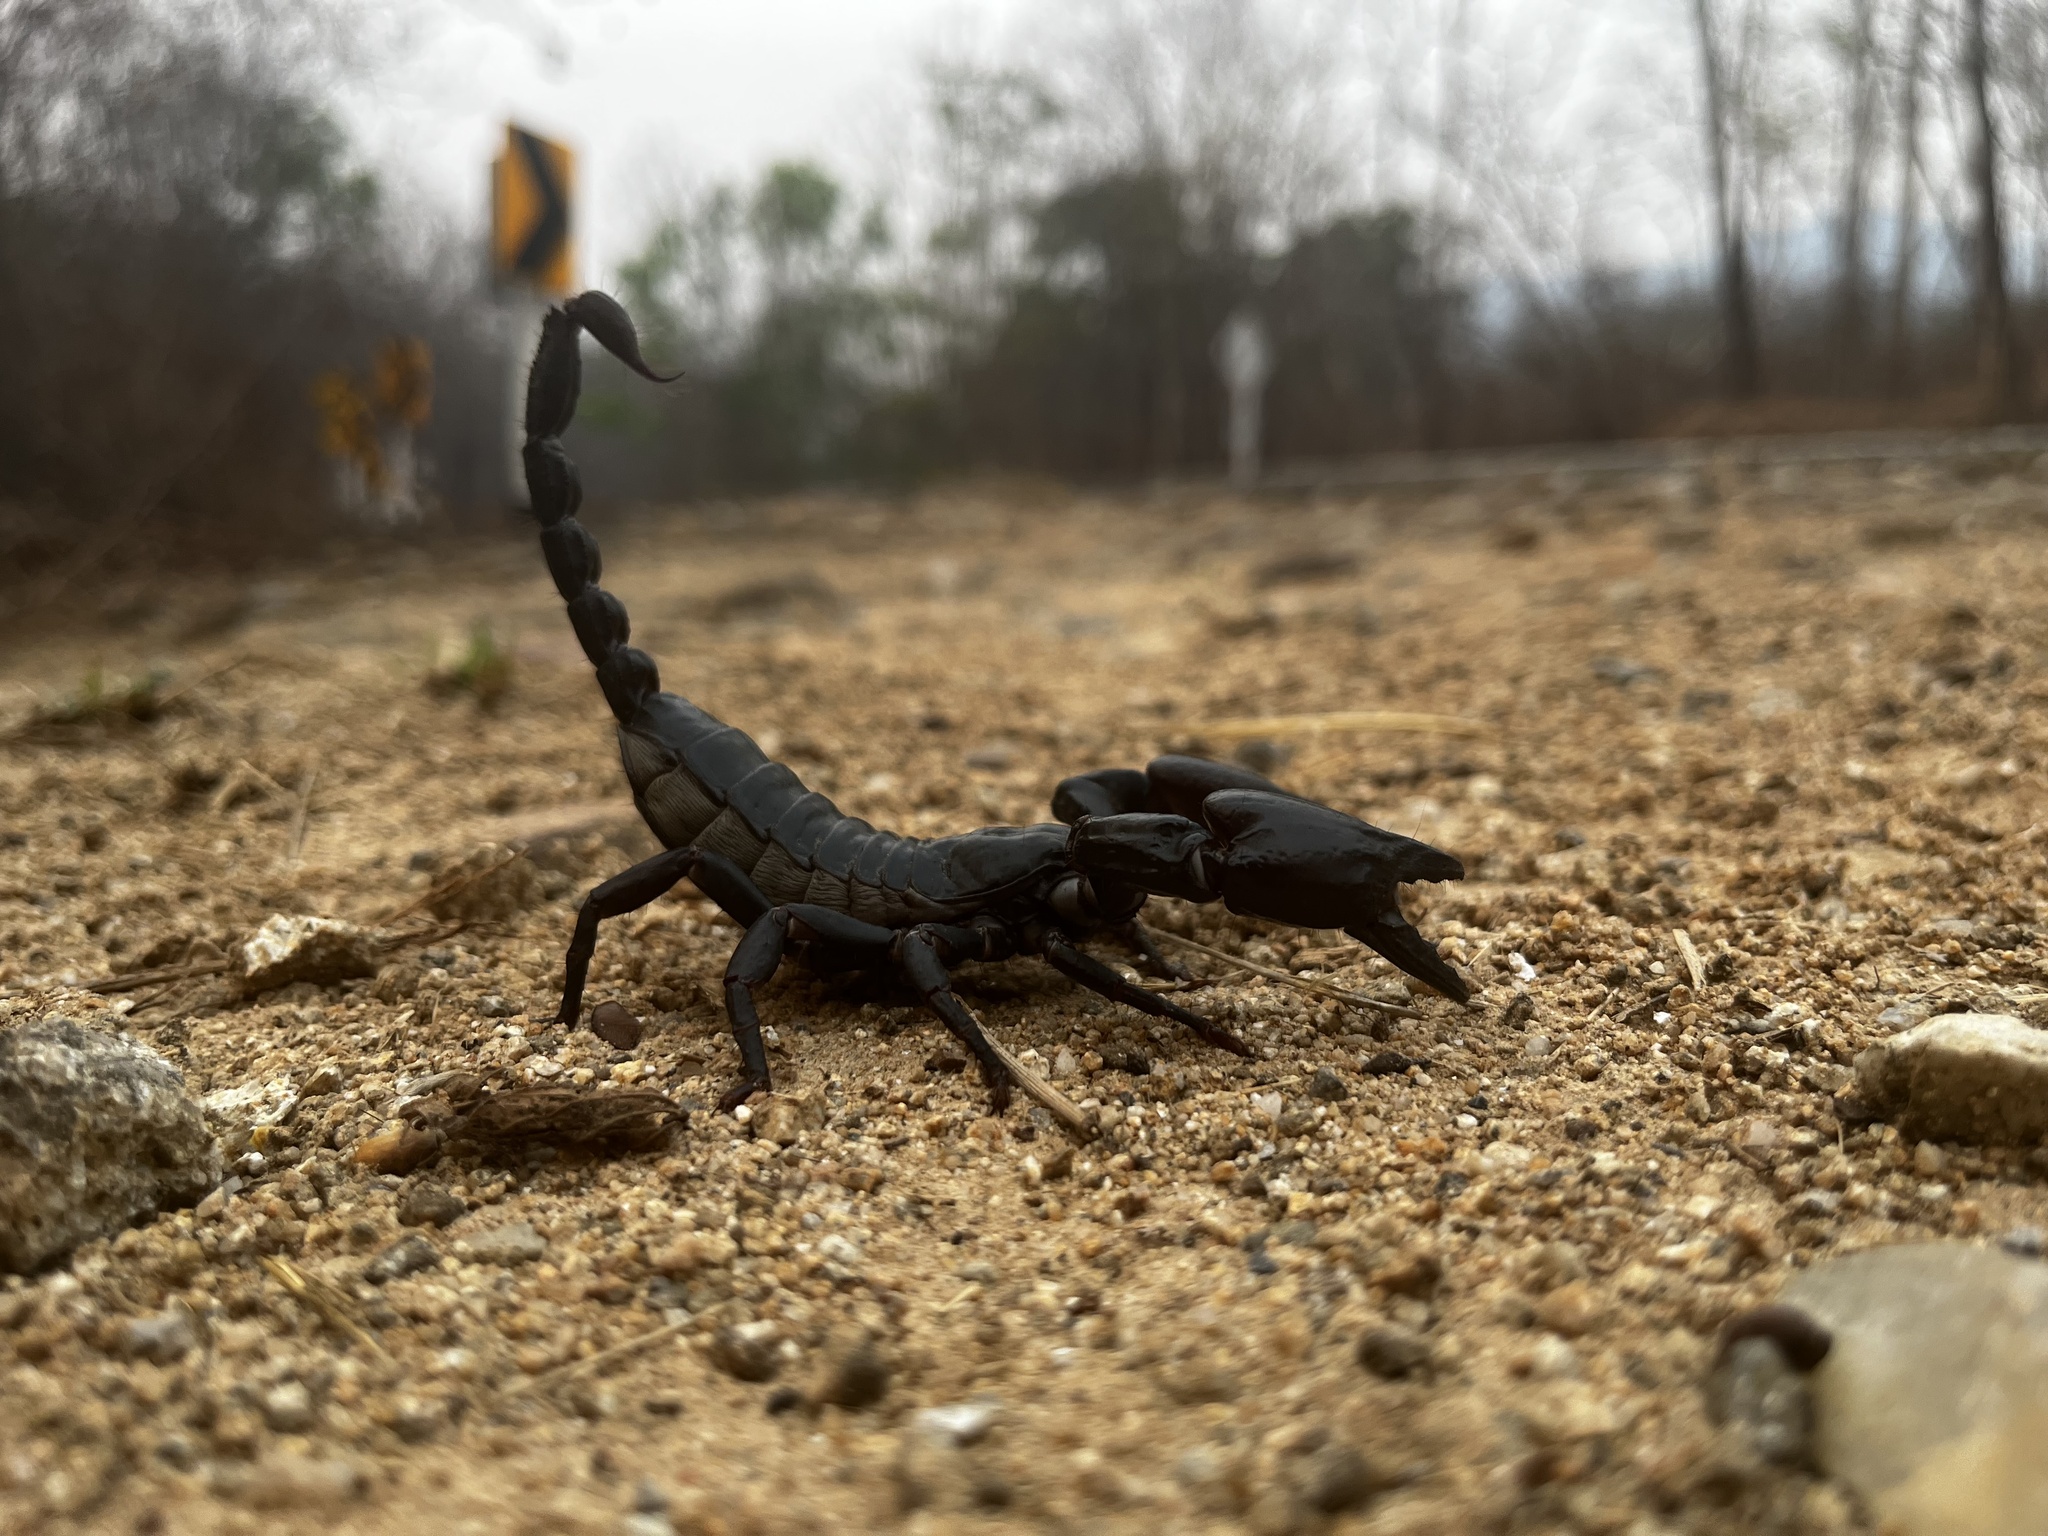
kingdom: Animalia
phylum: Arthropoda
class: Arachnida
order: Scorpiones
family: Scorpionidae
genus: Heterometrus
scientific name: Heterometrus laoticus
